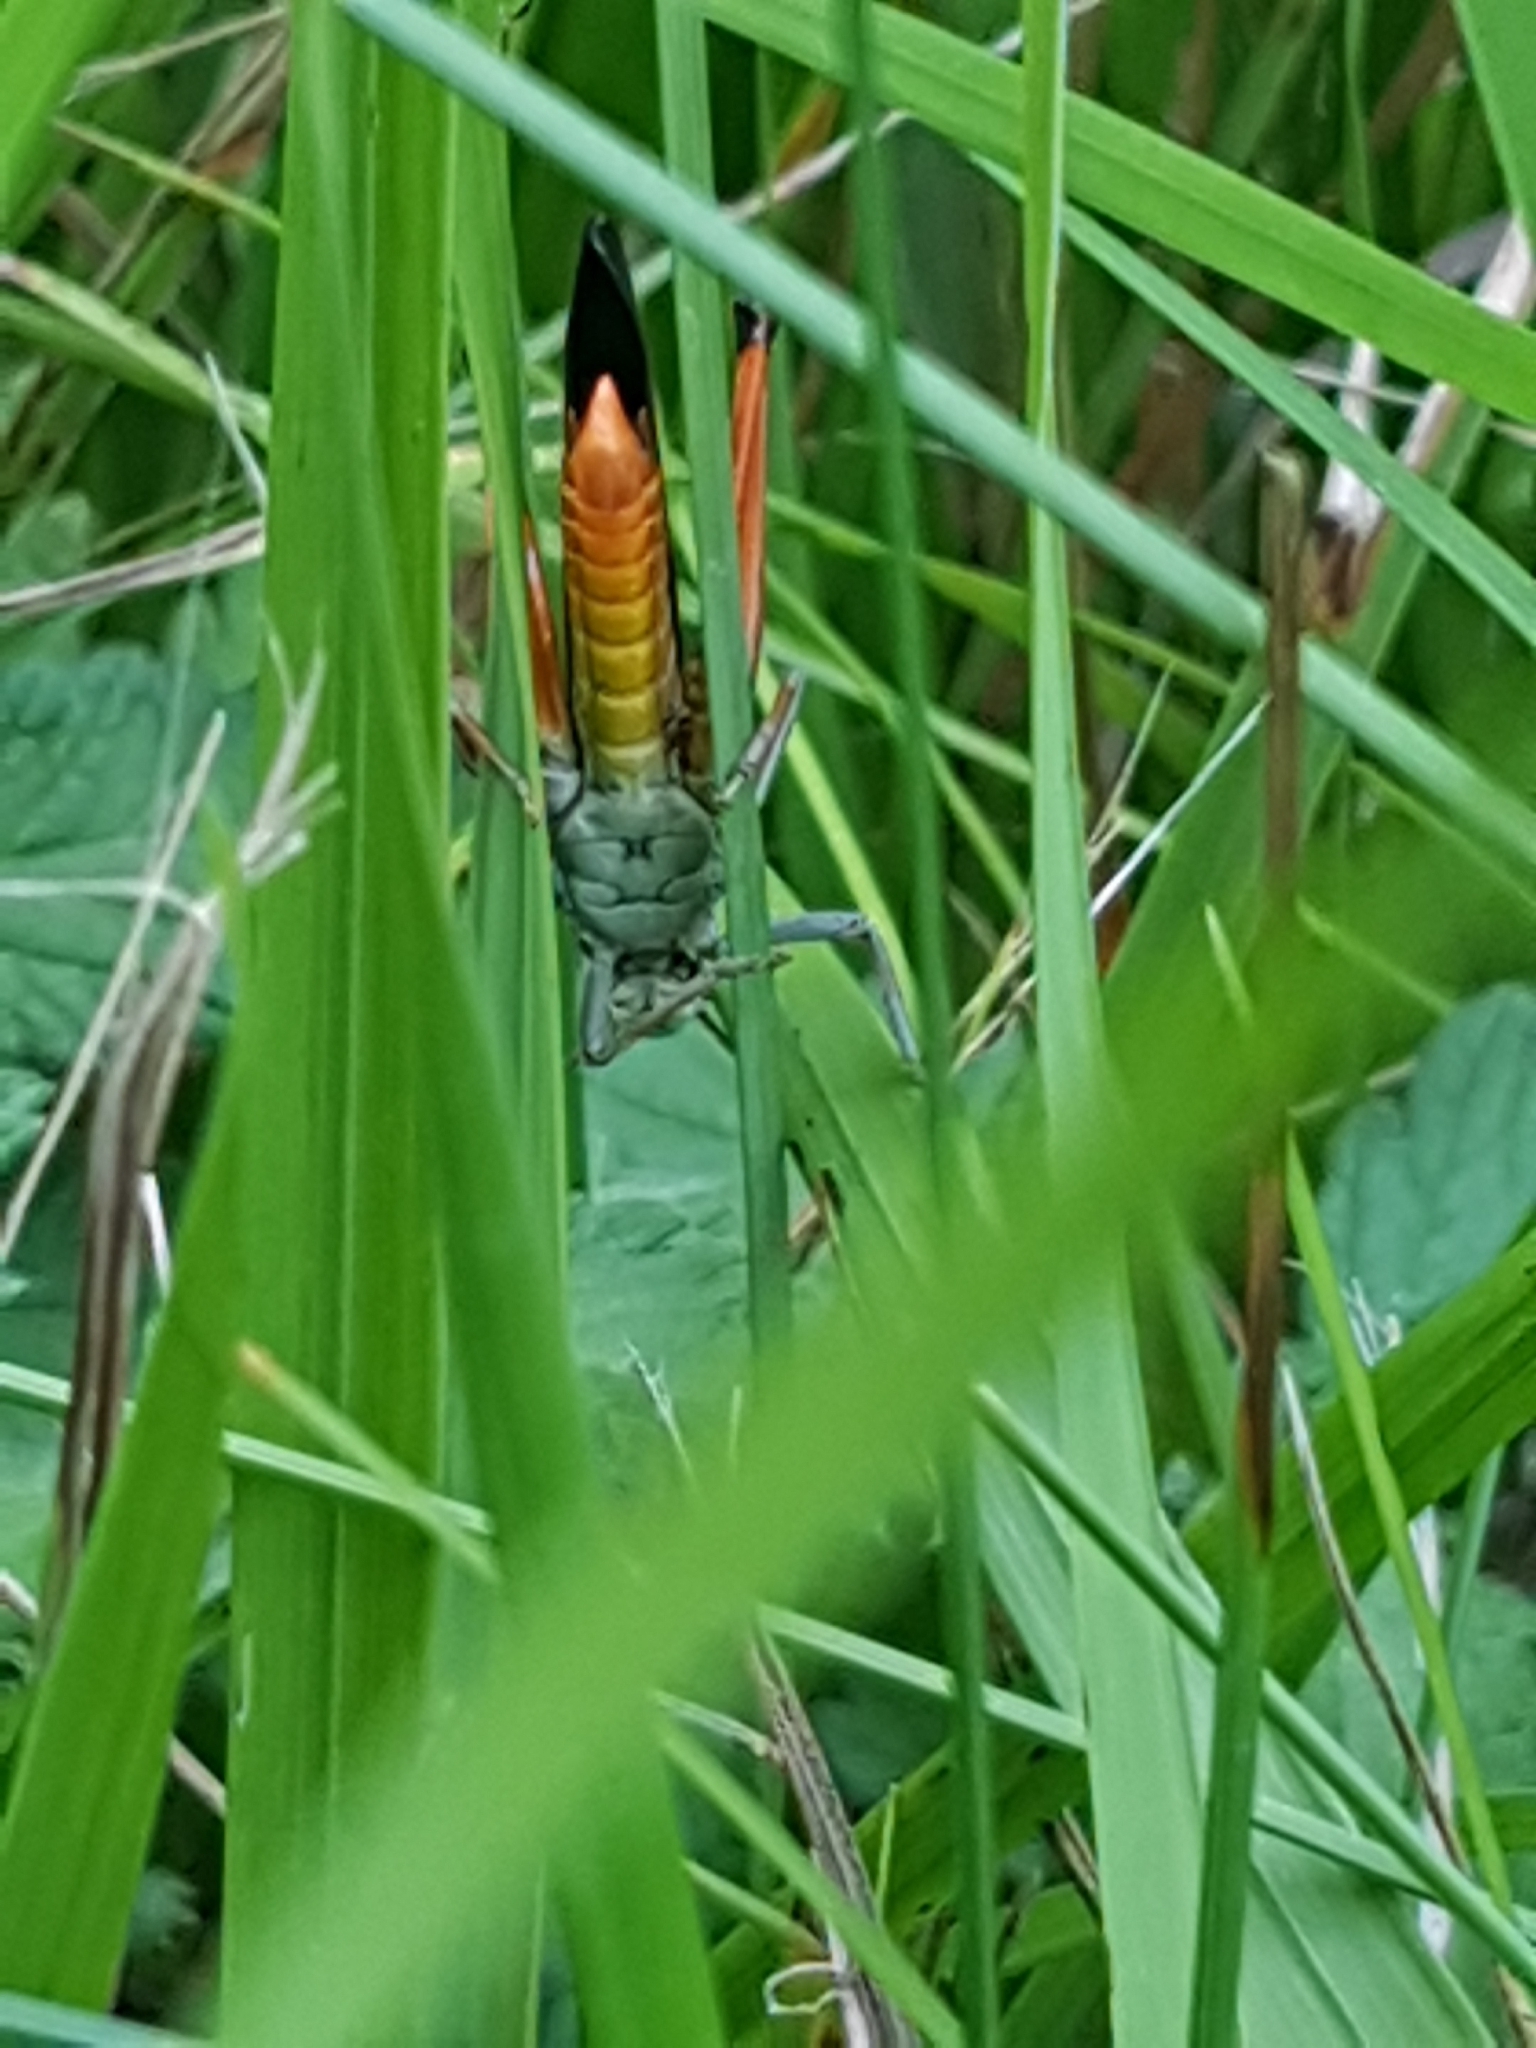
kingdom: Animalia
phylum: Arthropoda
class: Insecta
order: Orthoptera
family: Acrididae
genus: Stenobothrus
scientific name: Stenobothrus rubicundulus
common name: Wing-buzzing grasshopper
